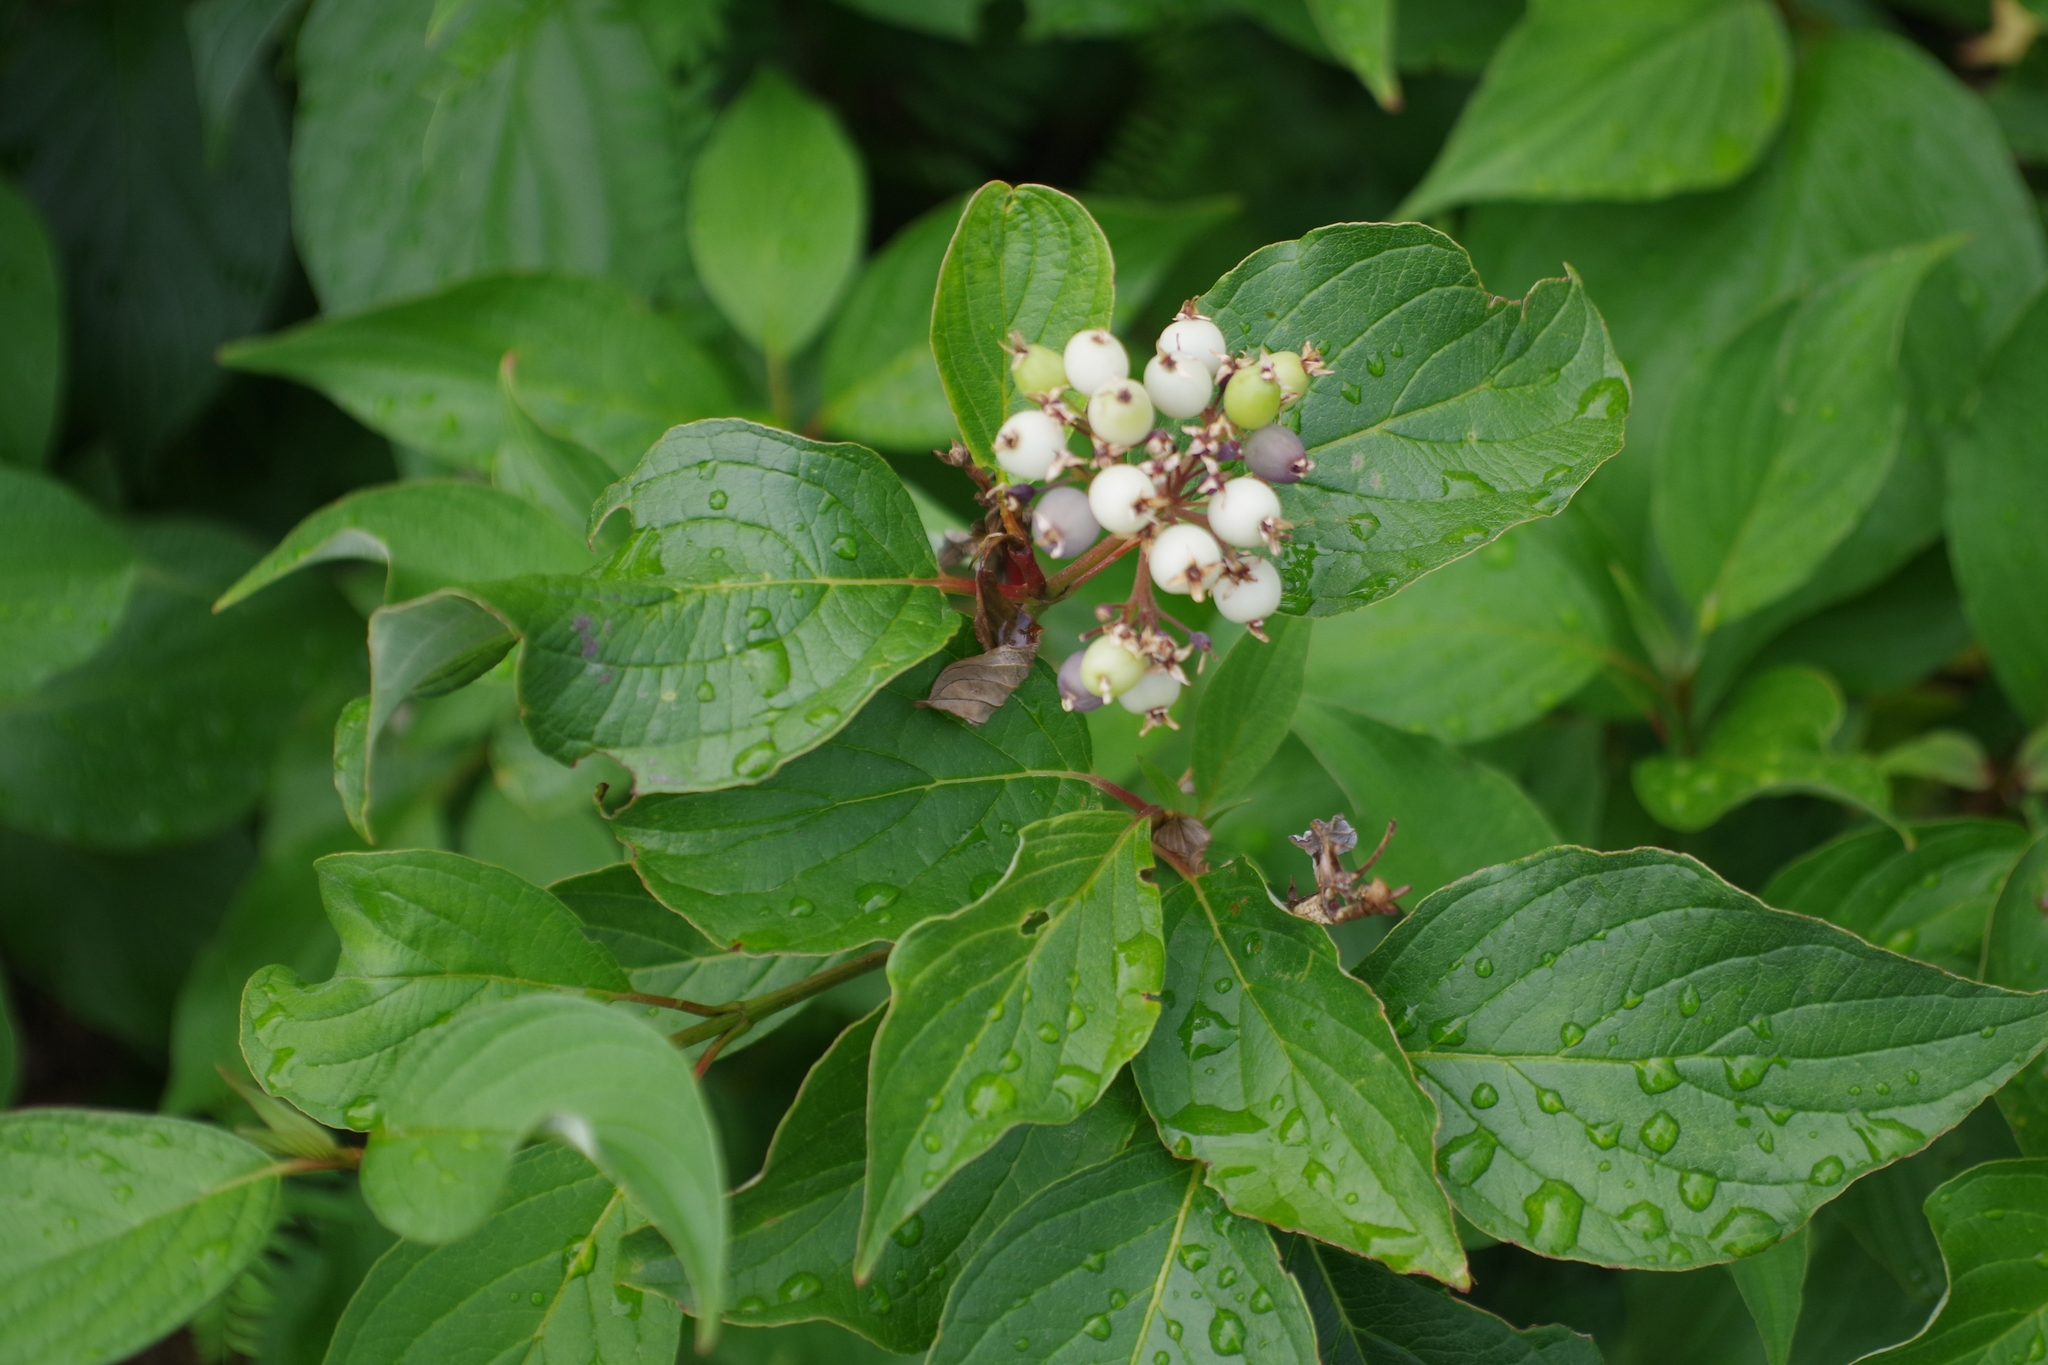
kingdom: Plantae
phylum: Tracheophyta
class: Magnoliopsida
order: Cornales
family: Cornaceae
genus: Cornus
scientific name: Cornus sericea
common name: Red-osier dogwood
